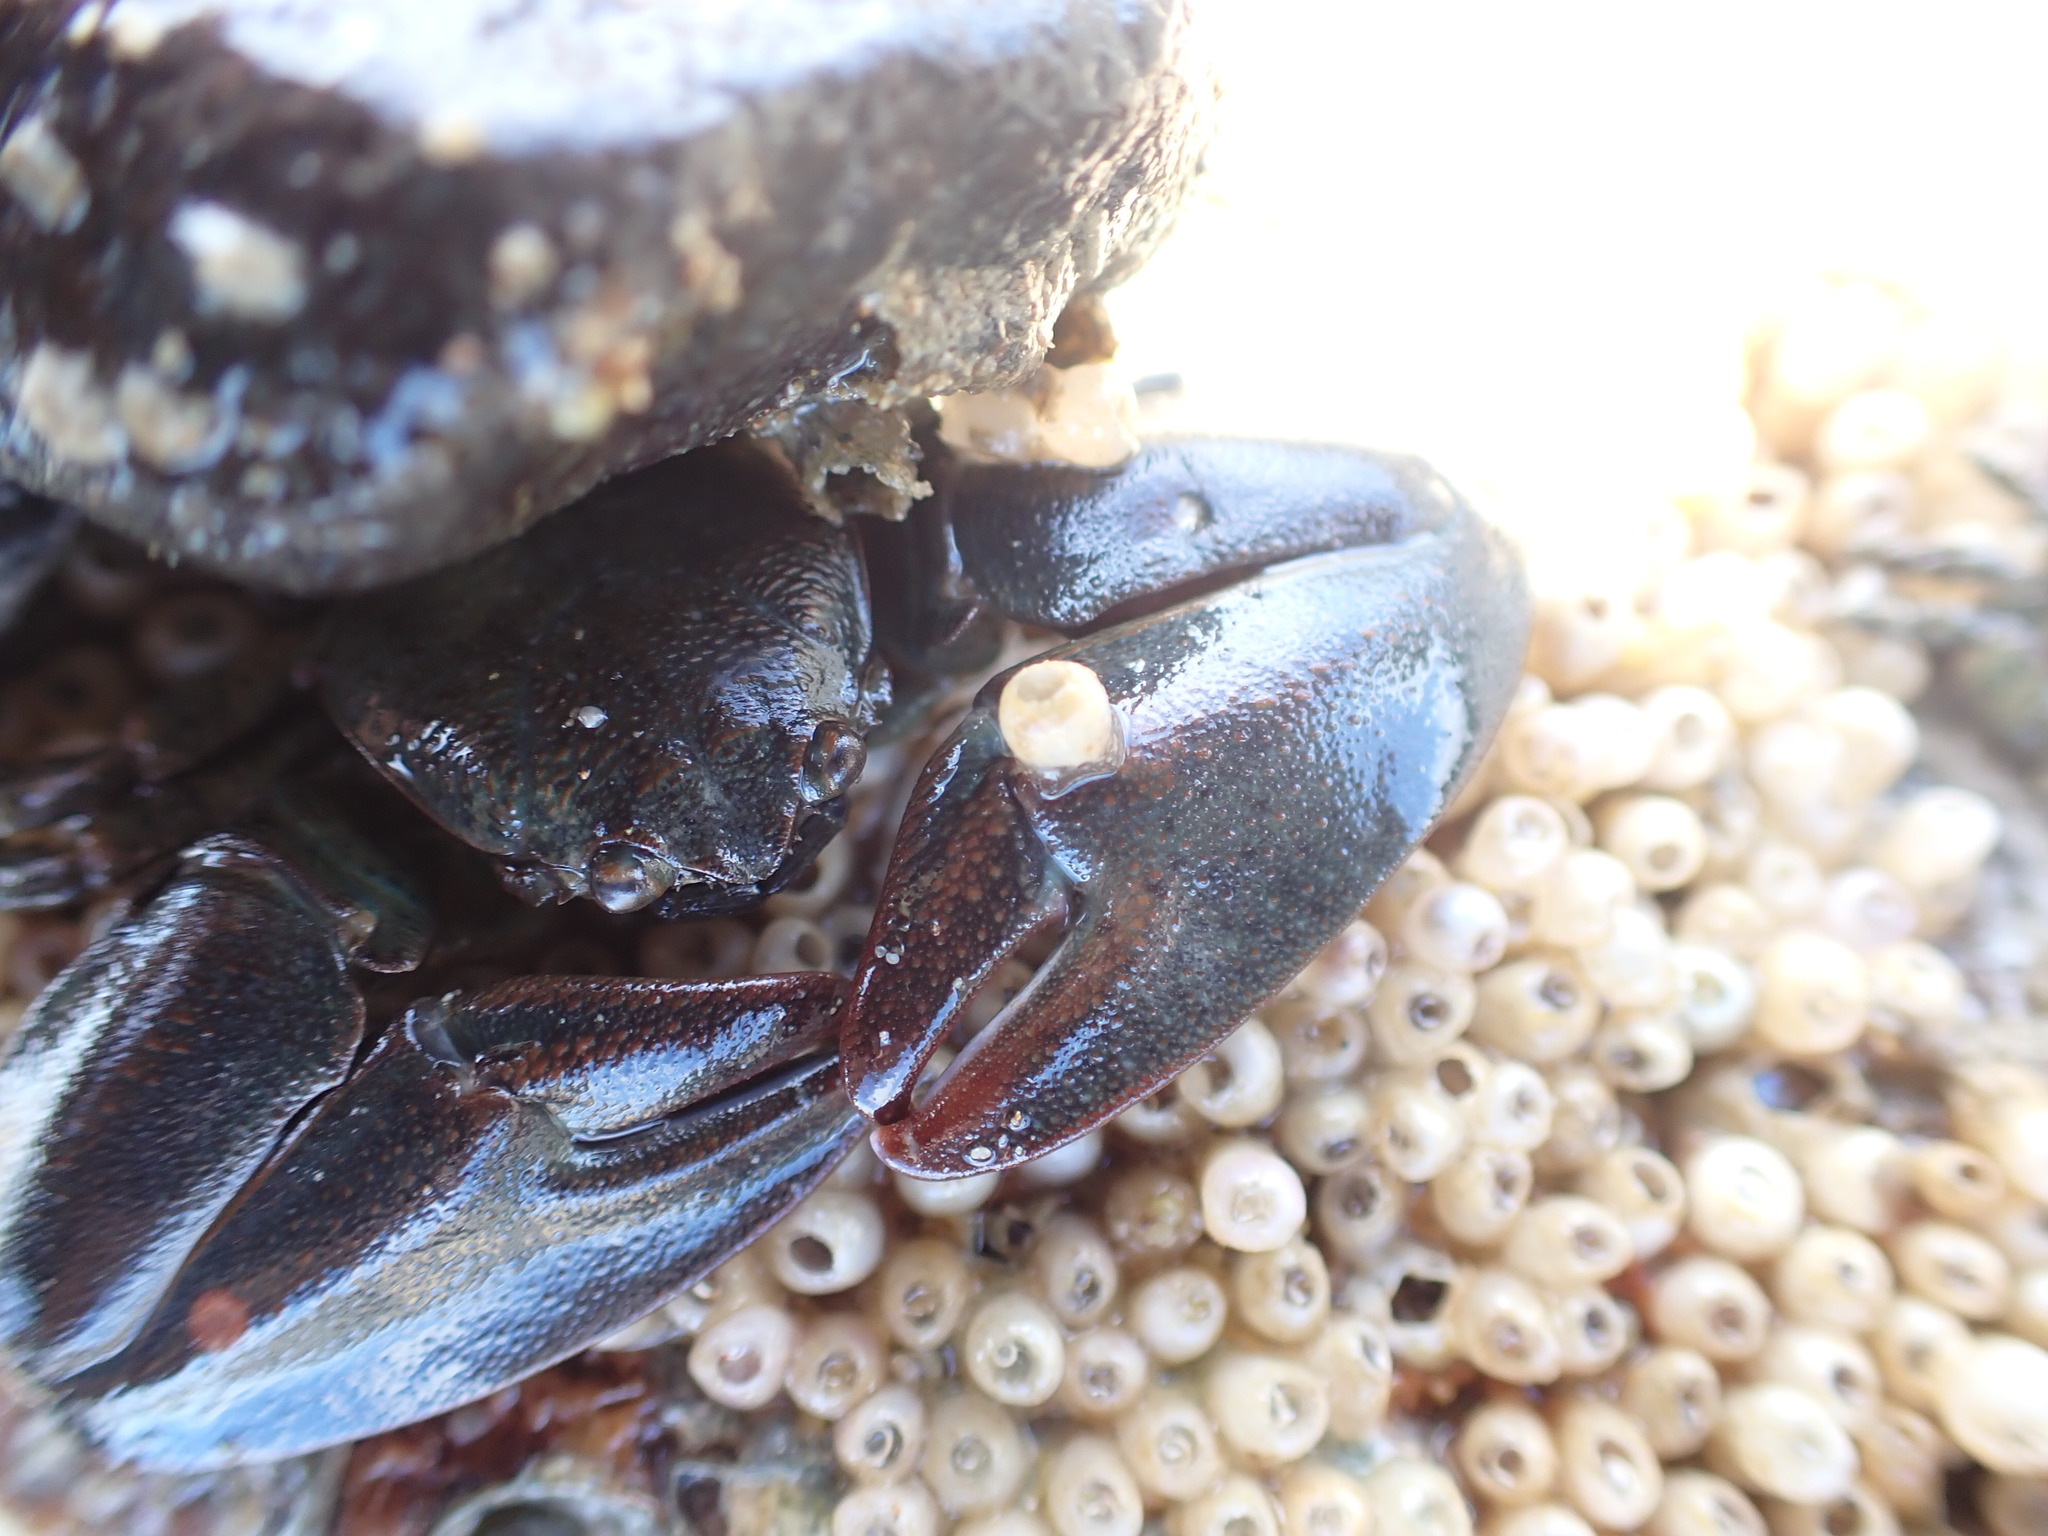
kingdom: Animalia
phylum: Arthropoda
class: Malacostraca
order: Decapoda
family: Porcellanidae
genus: Petrolisthes
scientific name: Petrolisthes elongatus
